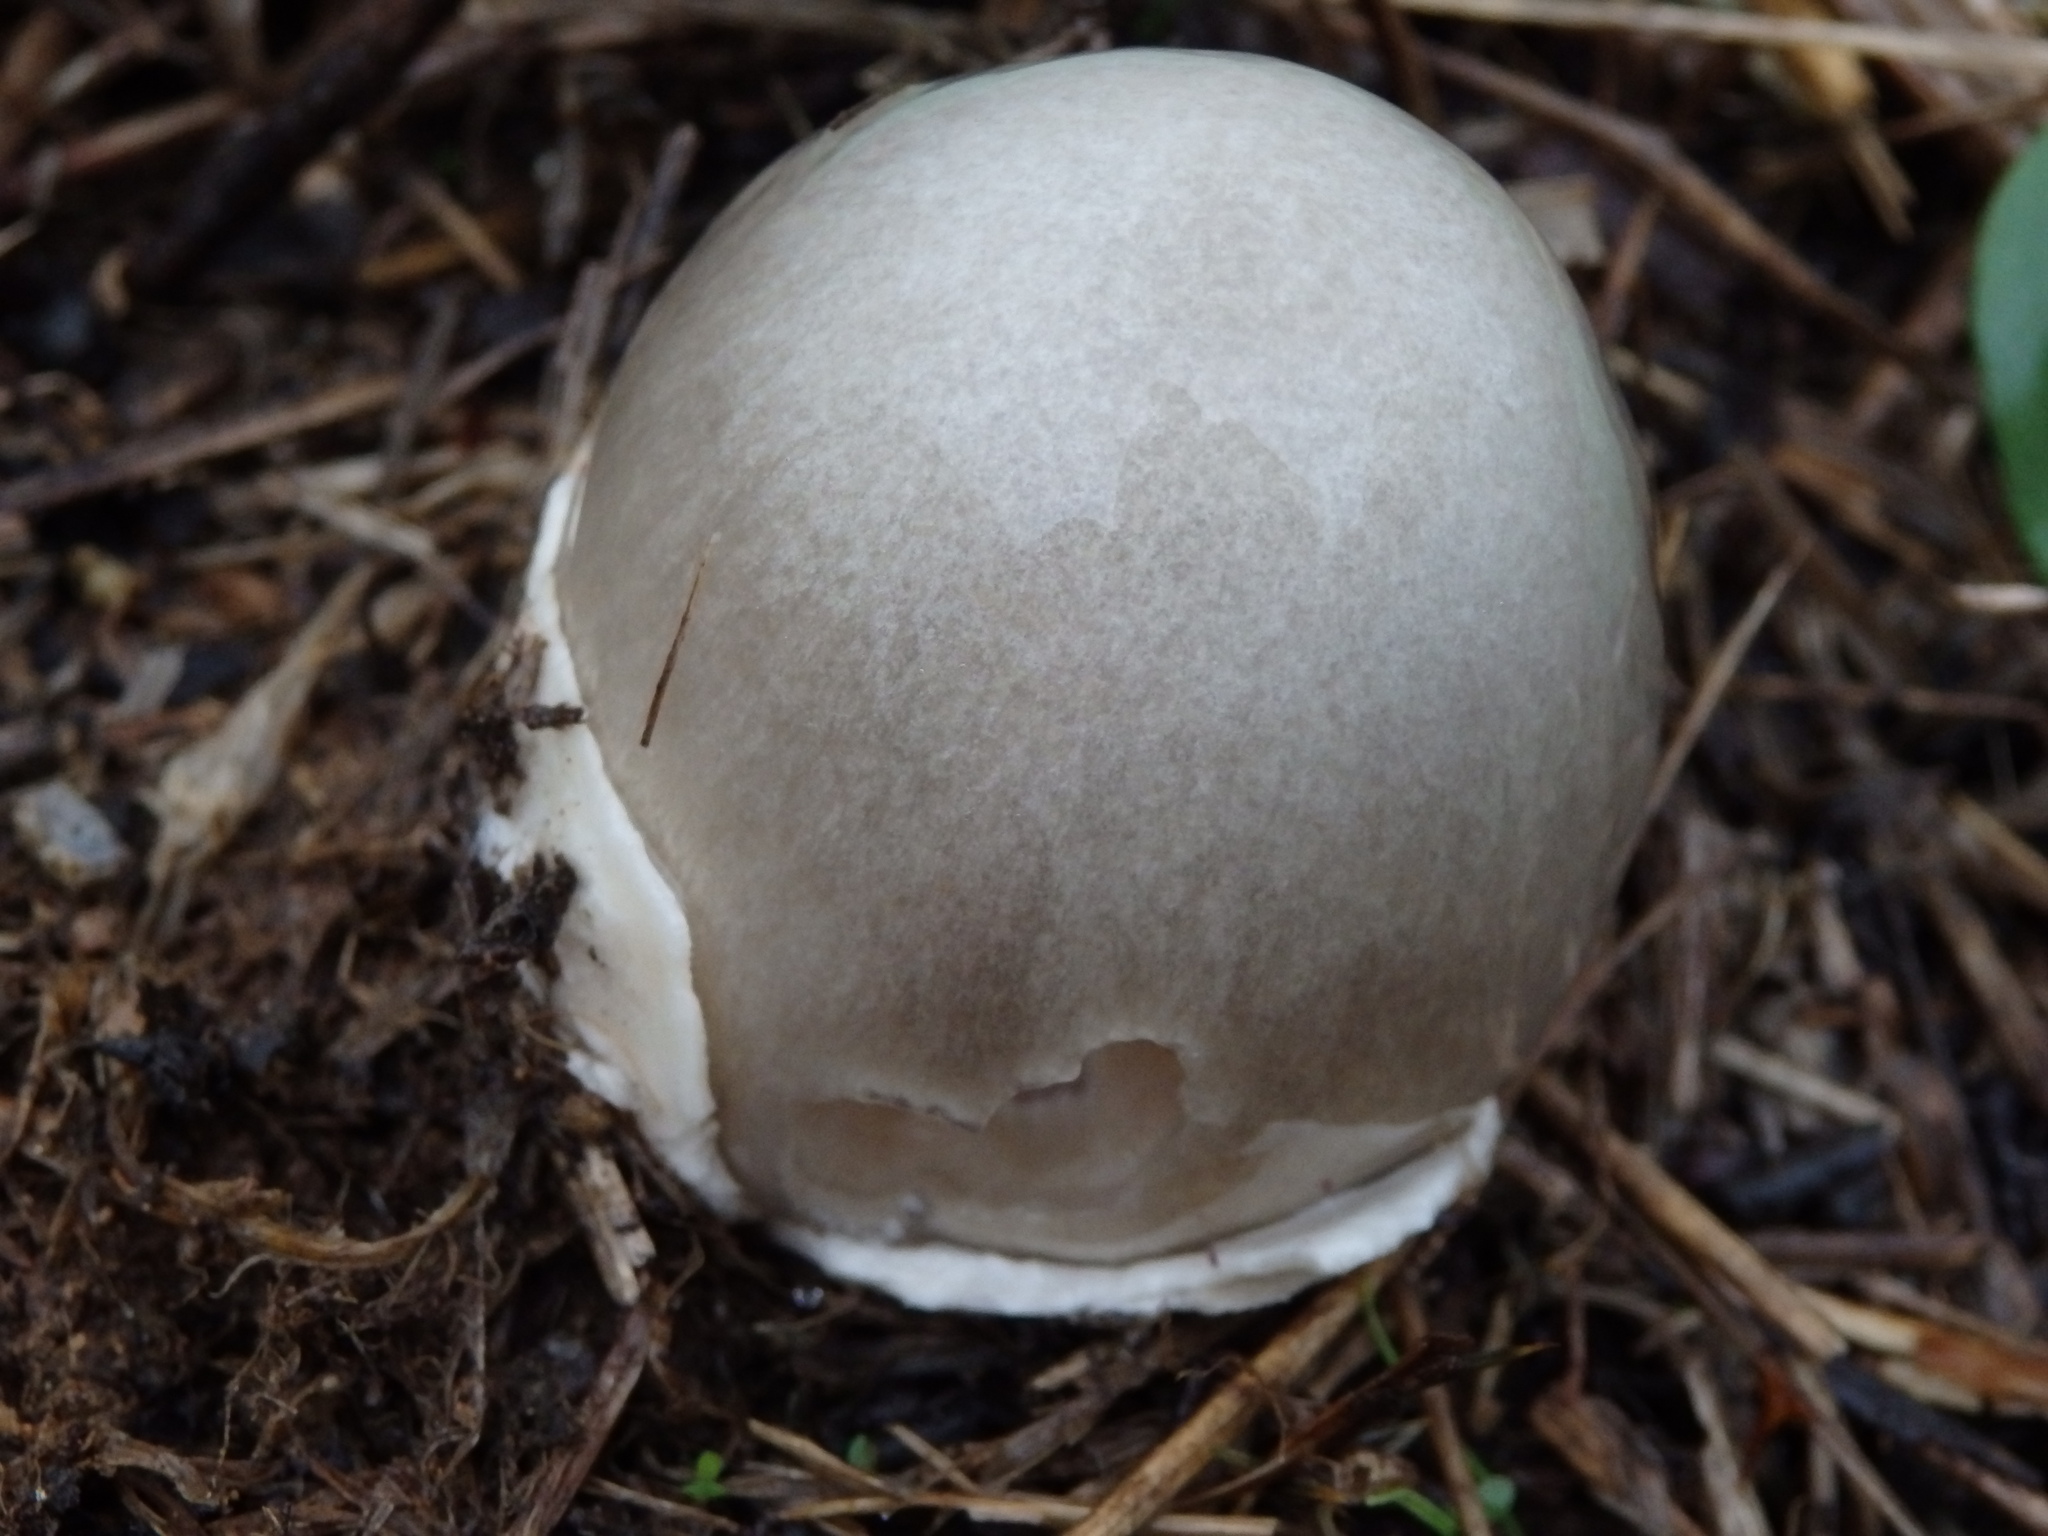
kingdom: Fungi
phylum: Basidiomycota
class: Agaricomycetes
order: Agaricales
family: Pluteaceae
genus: Volvopluteus
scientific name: Volvopluteus gloiocephalus
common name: Stubble rosegill
